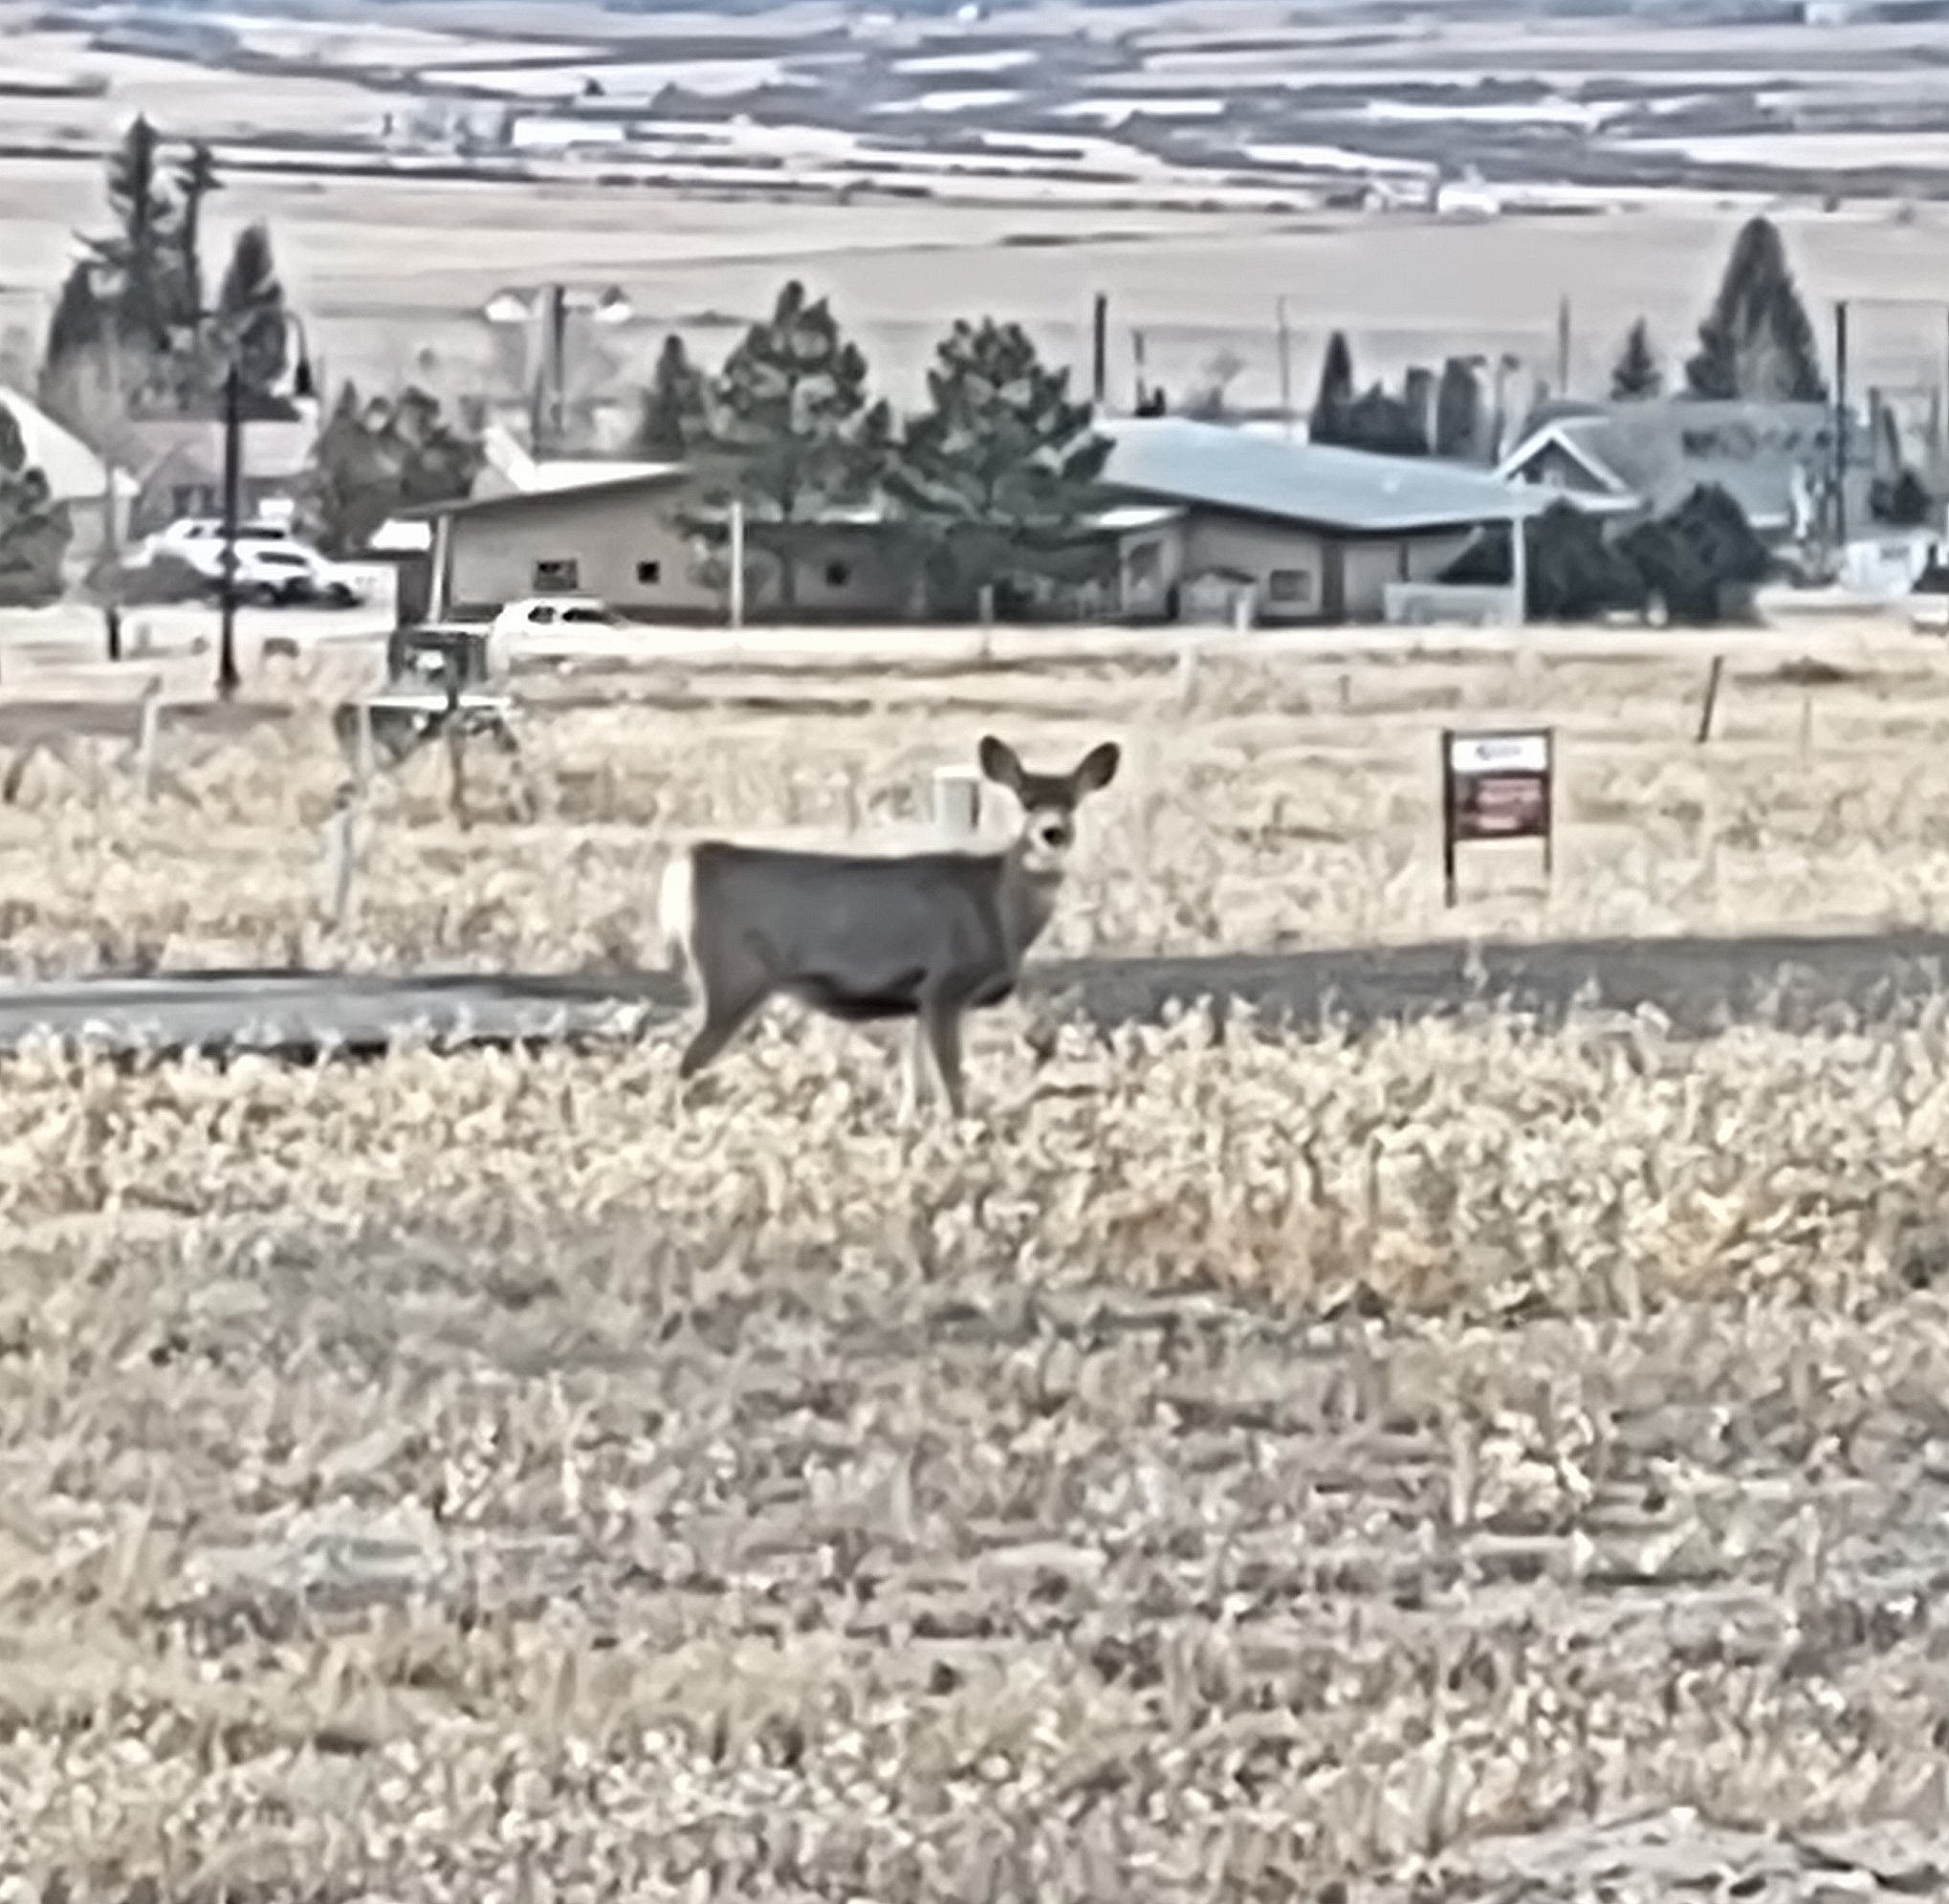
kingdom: Animalia
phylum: Chordata
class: Mammalia
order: Artiodactyla
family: Cervidae
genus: Odocoileus
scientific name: Odocoileus hemionus
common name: Mule deer
